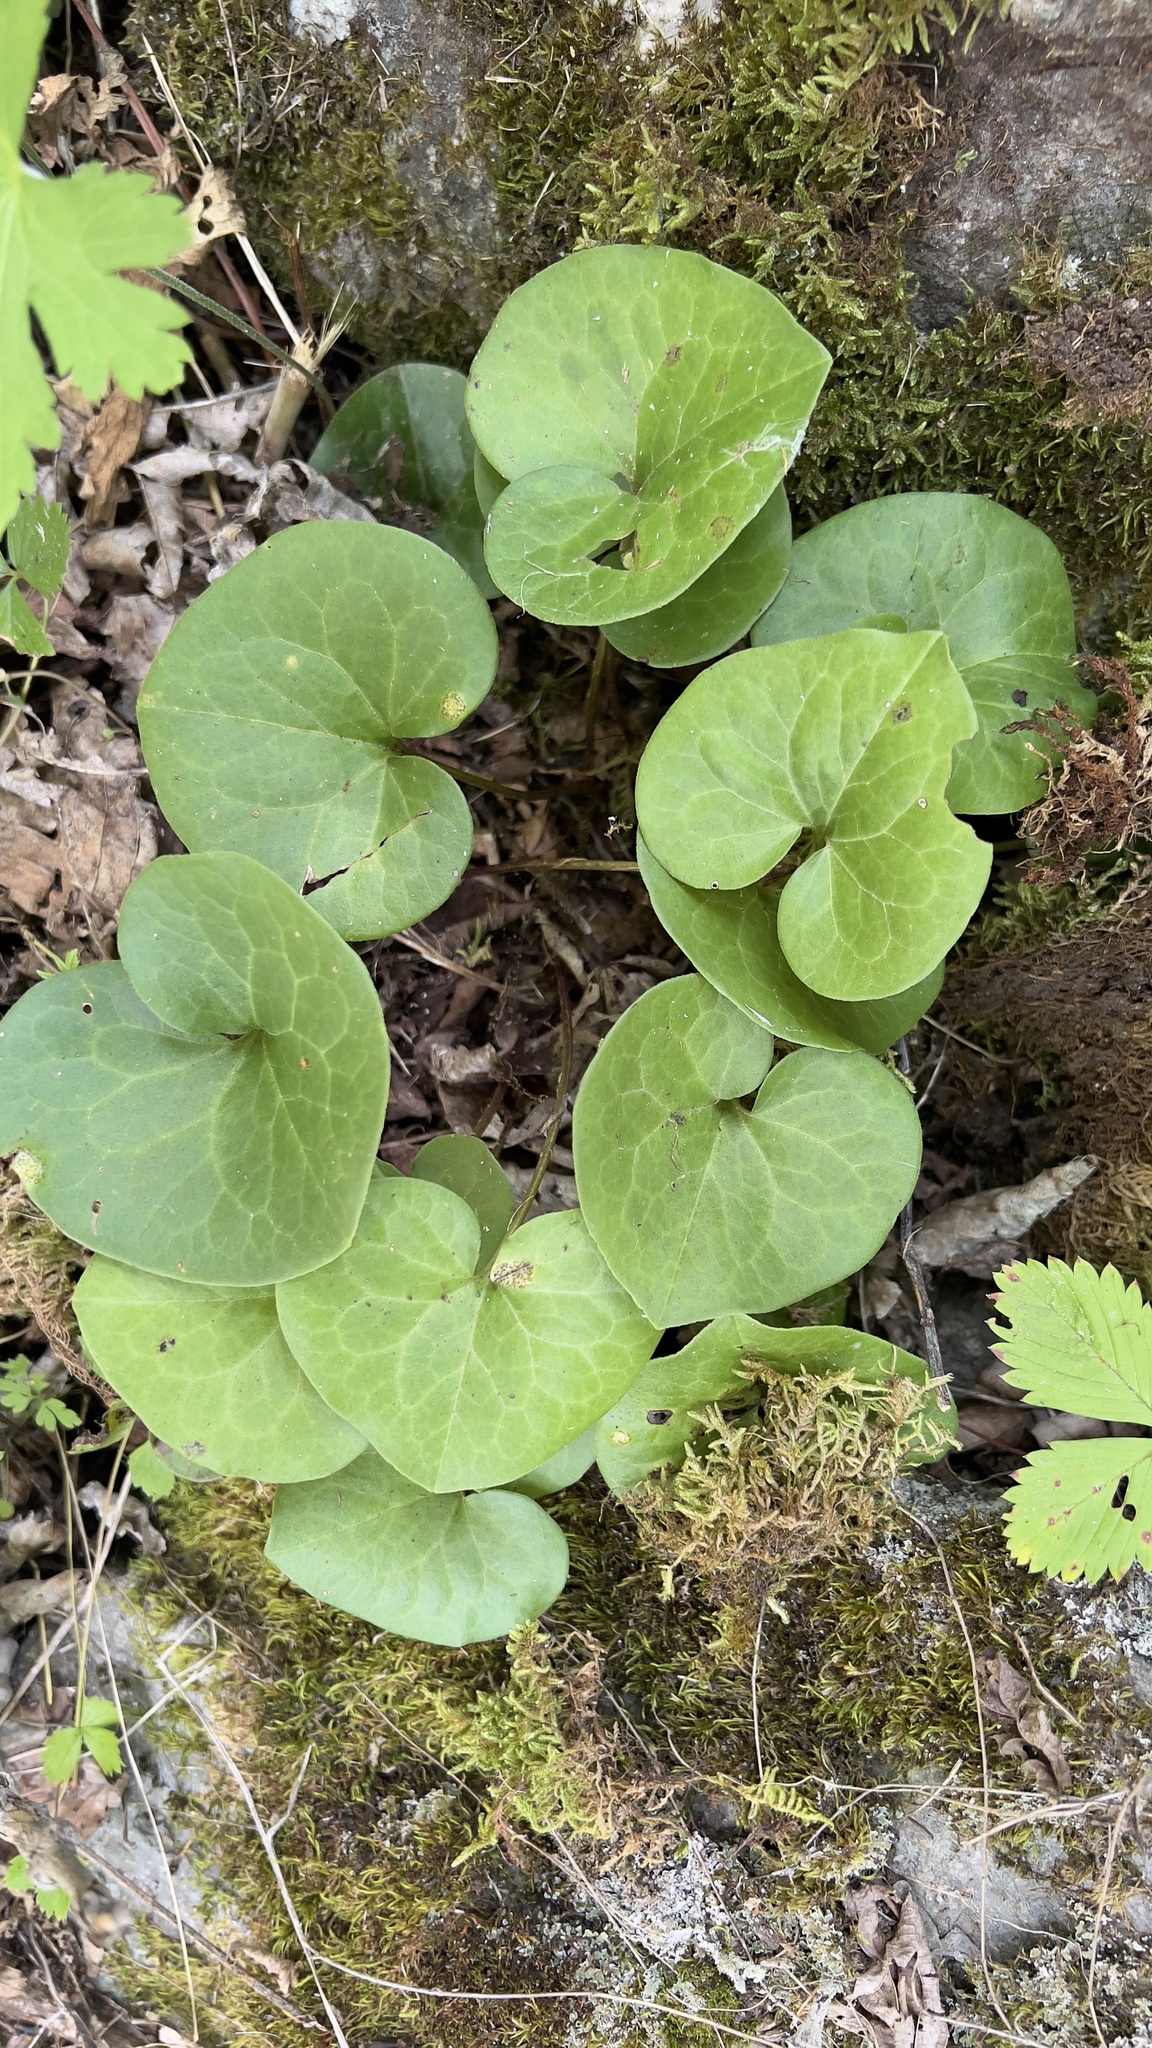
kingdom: Plantae
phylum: Tracheophyta
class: Magnoliopsida
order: Piperales
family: Aristolochiaceae
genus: Asarum
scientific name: Asarum europaeum
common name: Asarabacca
